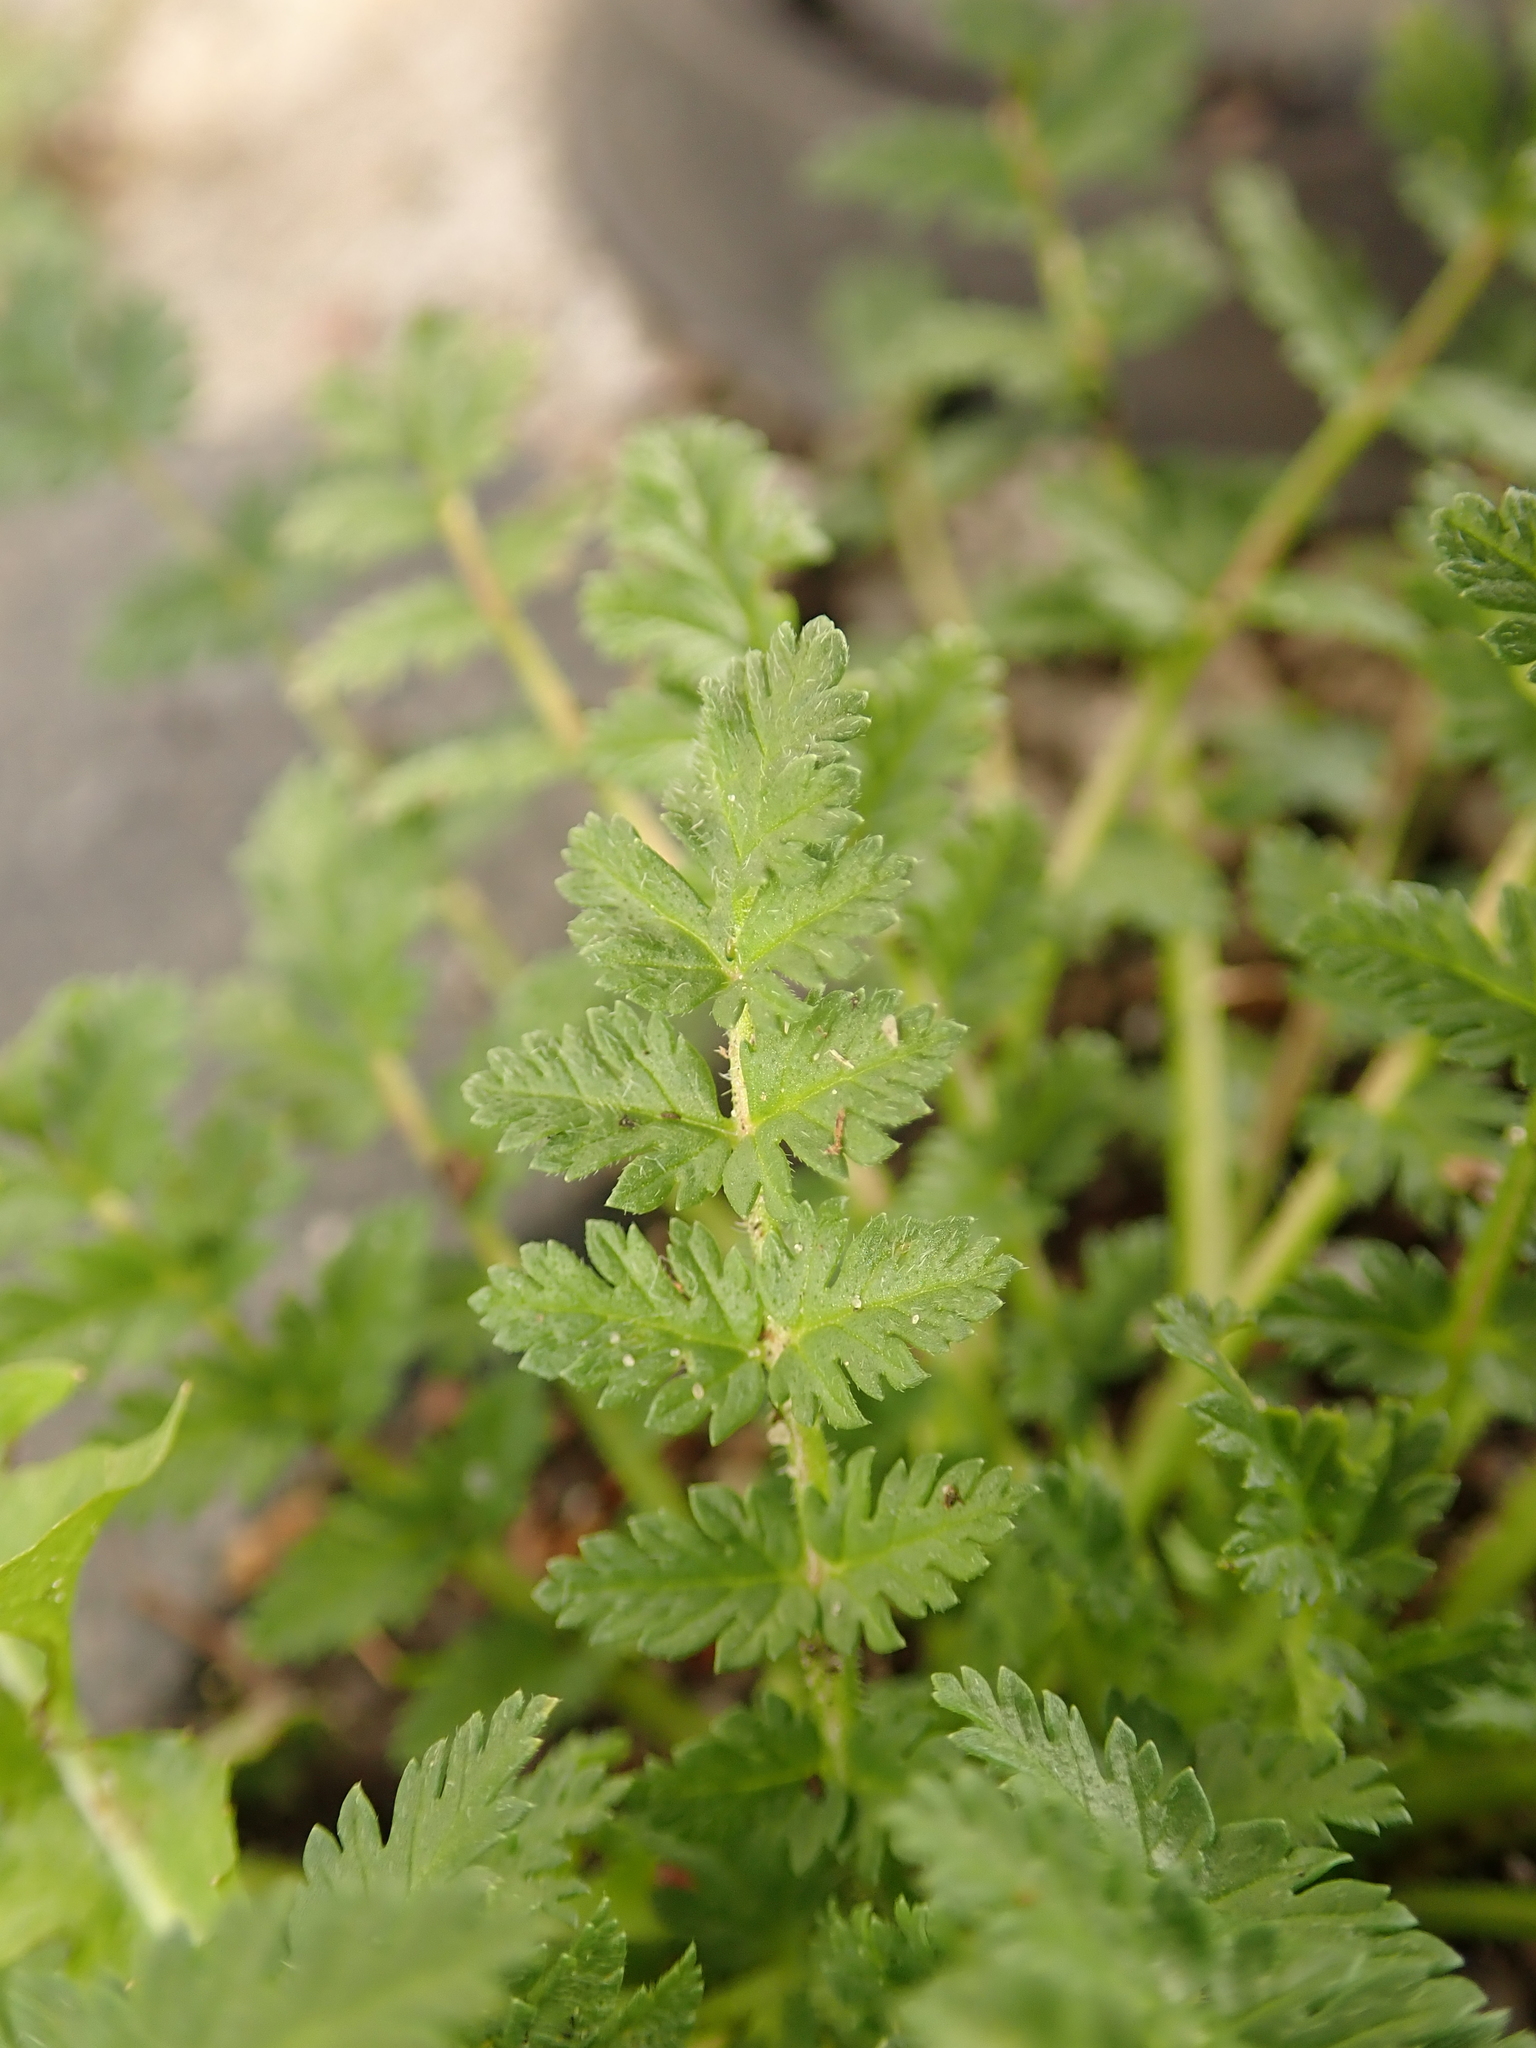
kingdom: Plantae
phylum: Tracheophyta
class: Magnoliopsida
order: Geraniales
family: Geraniaceae
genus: Erodium
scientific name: Erodium cicutarium
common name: Common stork's-bill
